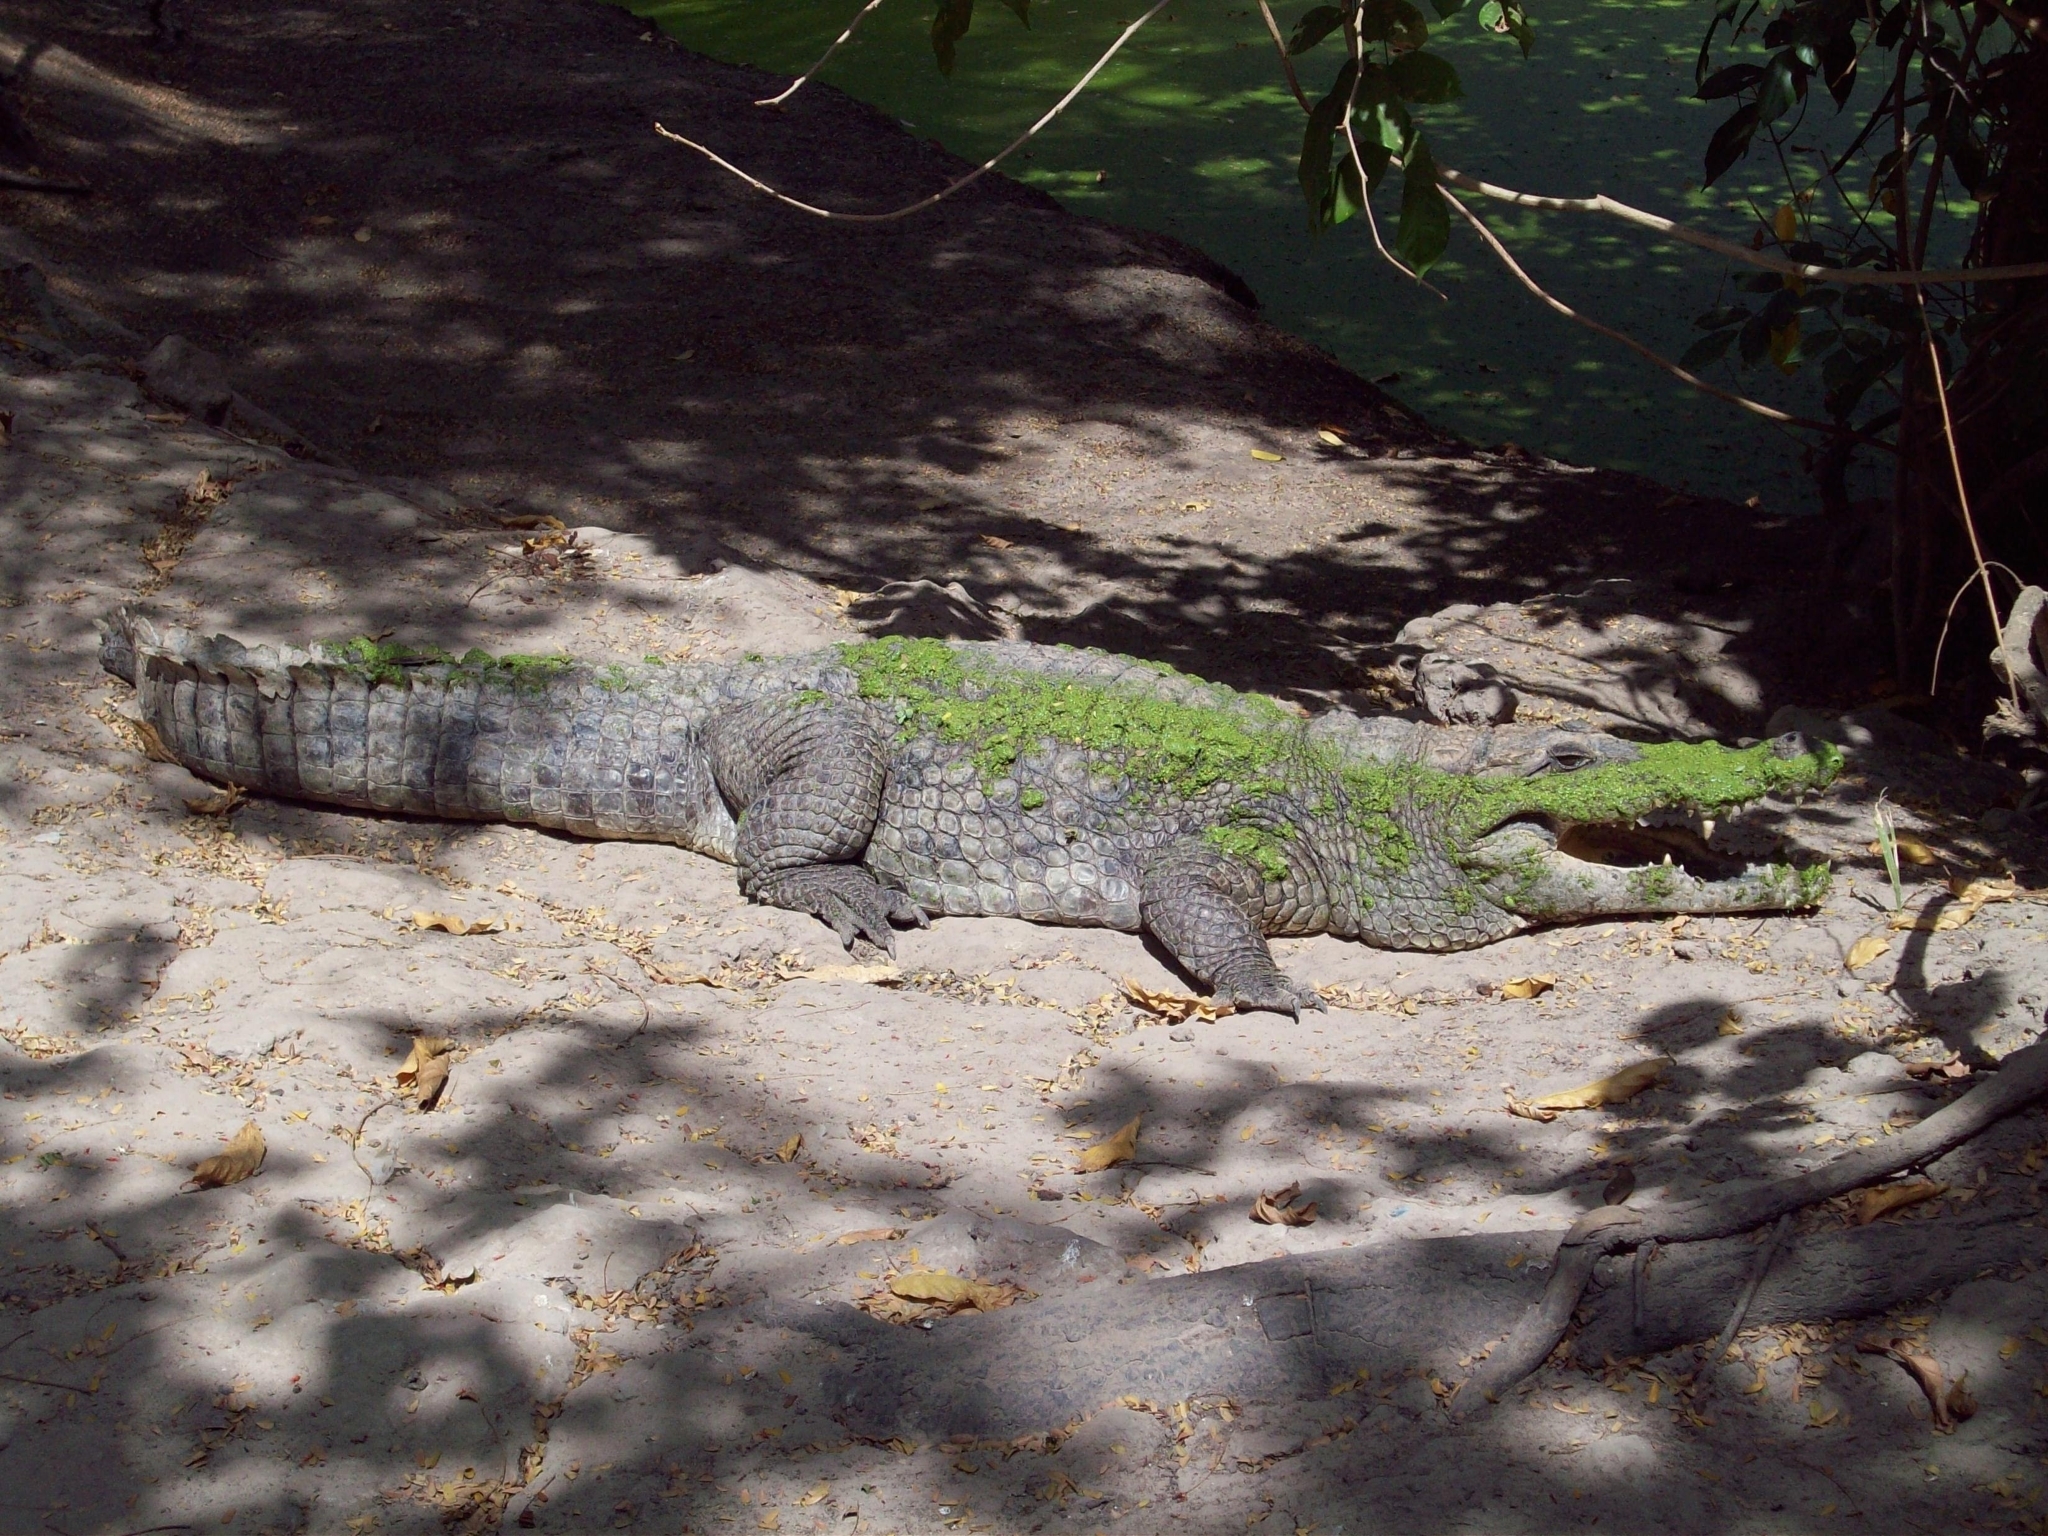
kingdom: Animalia
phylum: Chordata
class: Crocodylia
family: Crocodylidae
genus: Crocodylus
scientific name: Crocodylus suchus
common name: West african crocodile
